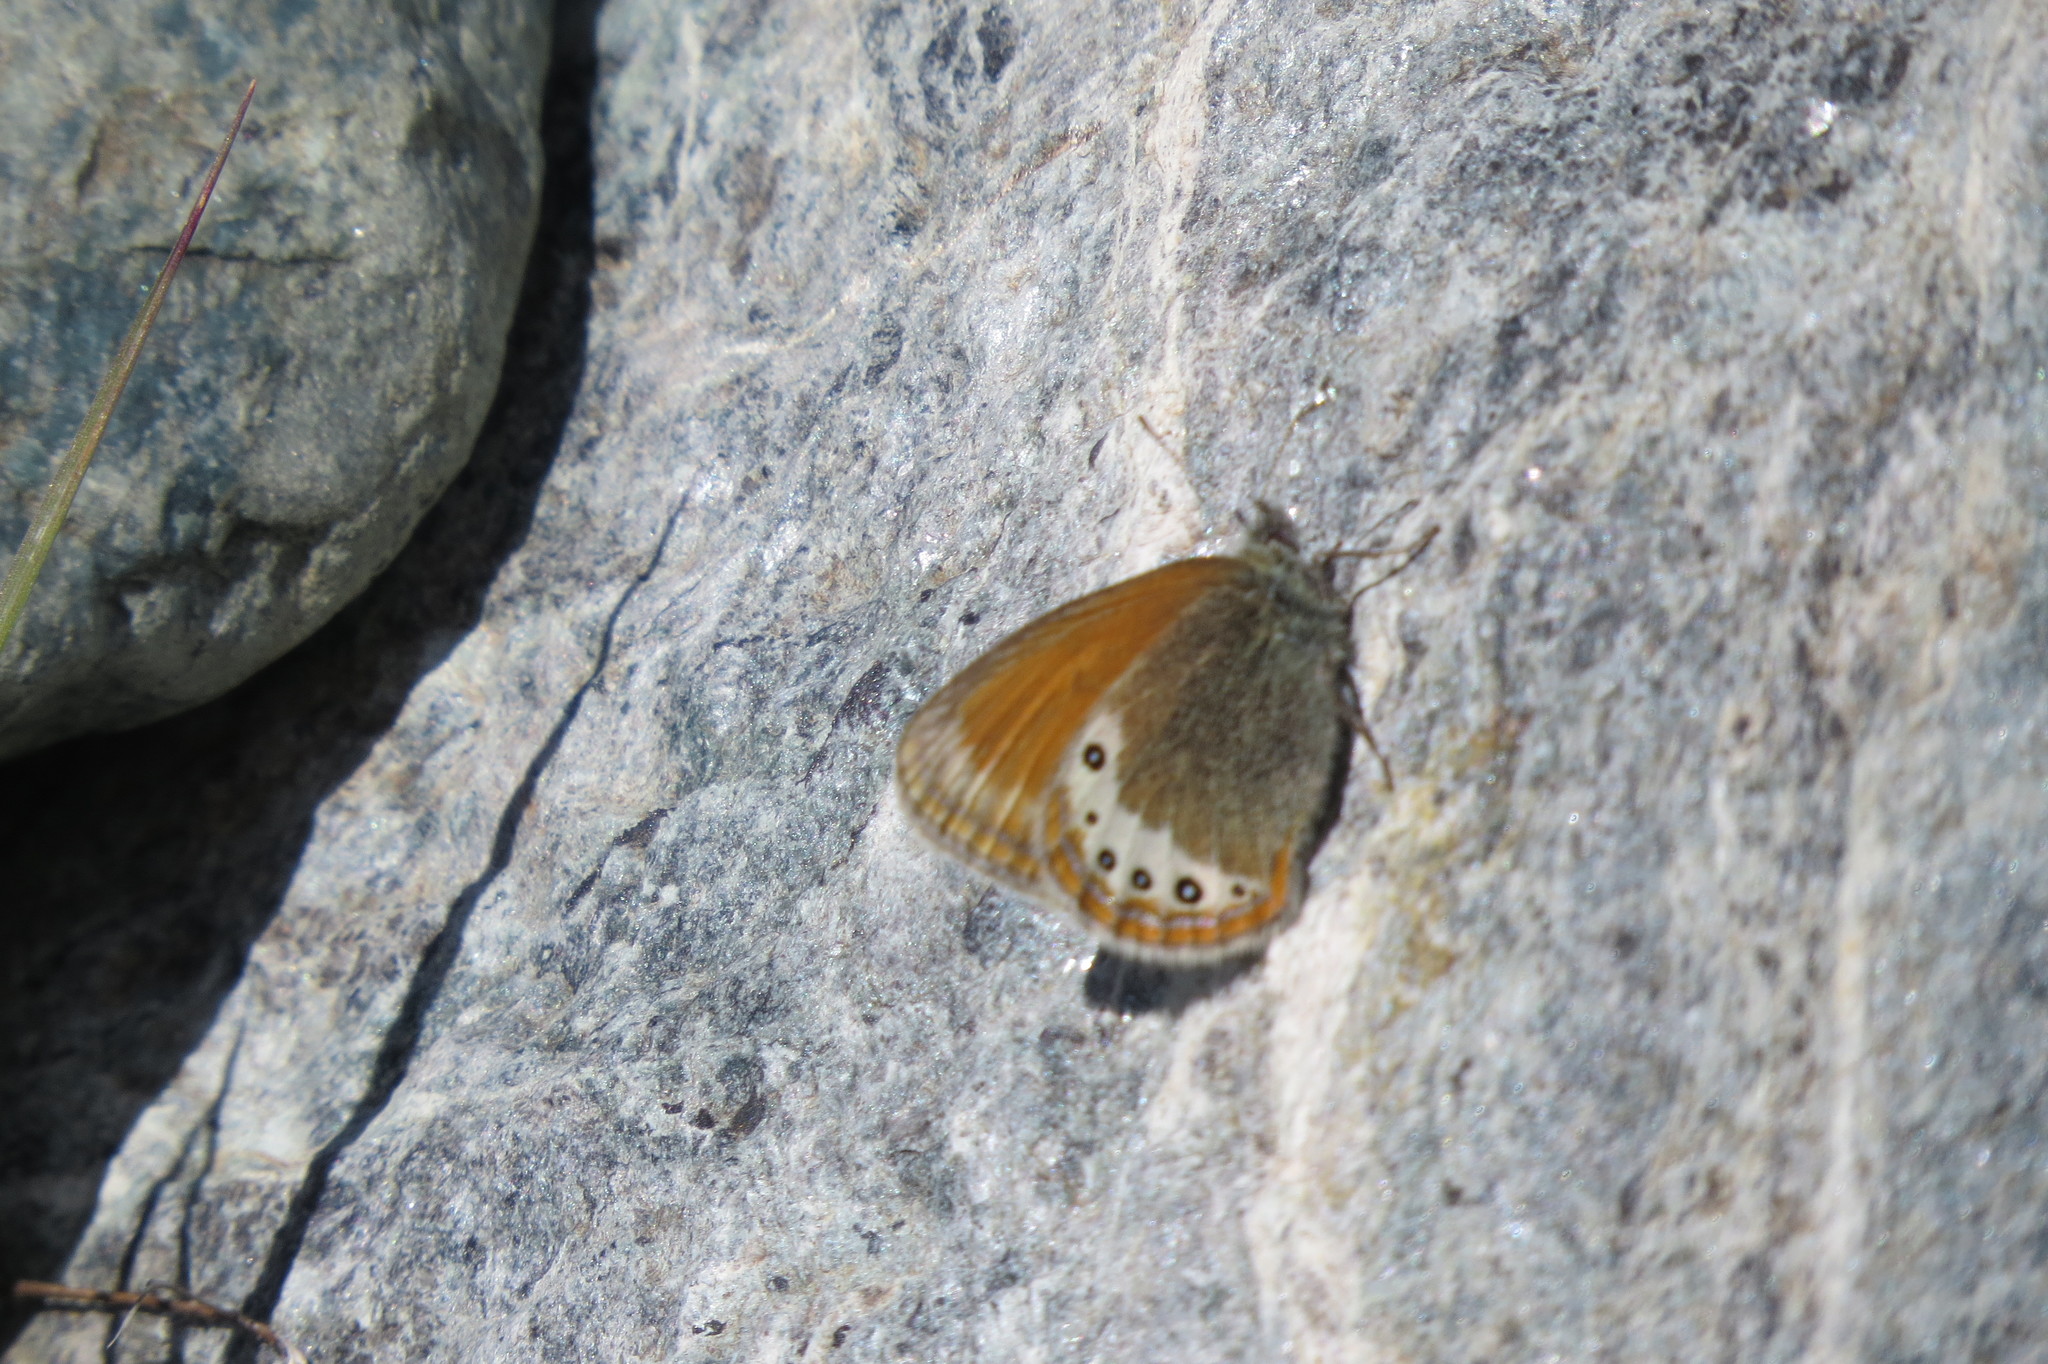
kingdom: Animalia
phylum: Arthropoda
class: Insecta
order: Lepidoptera
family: Nymphalidae
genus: Coenonympha
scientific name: Coenonympha
